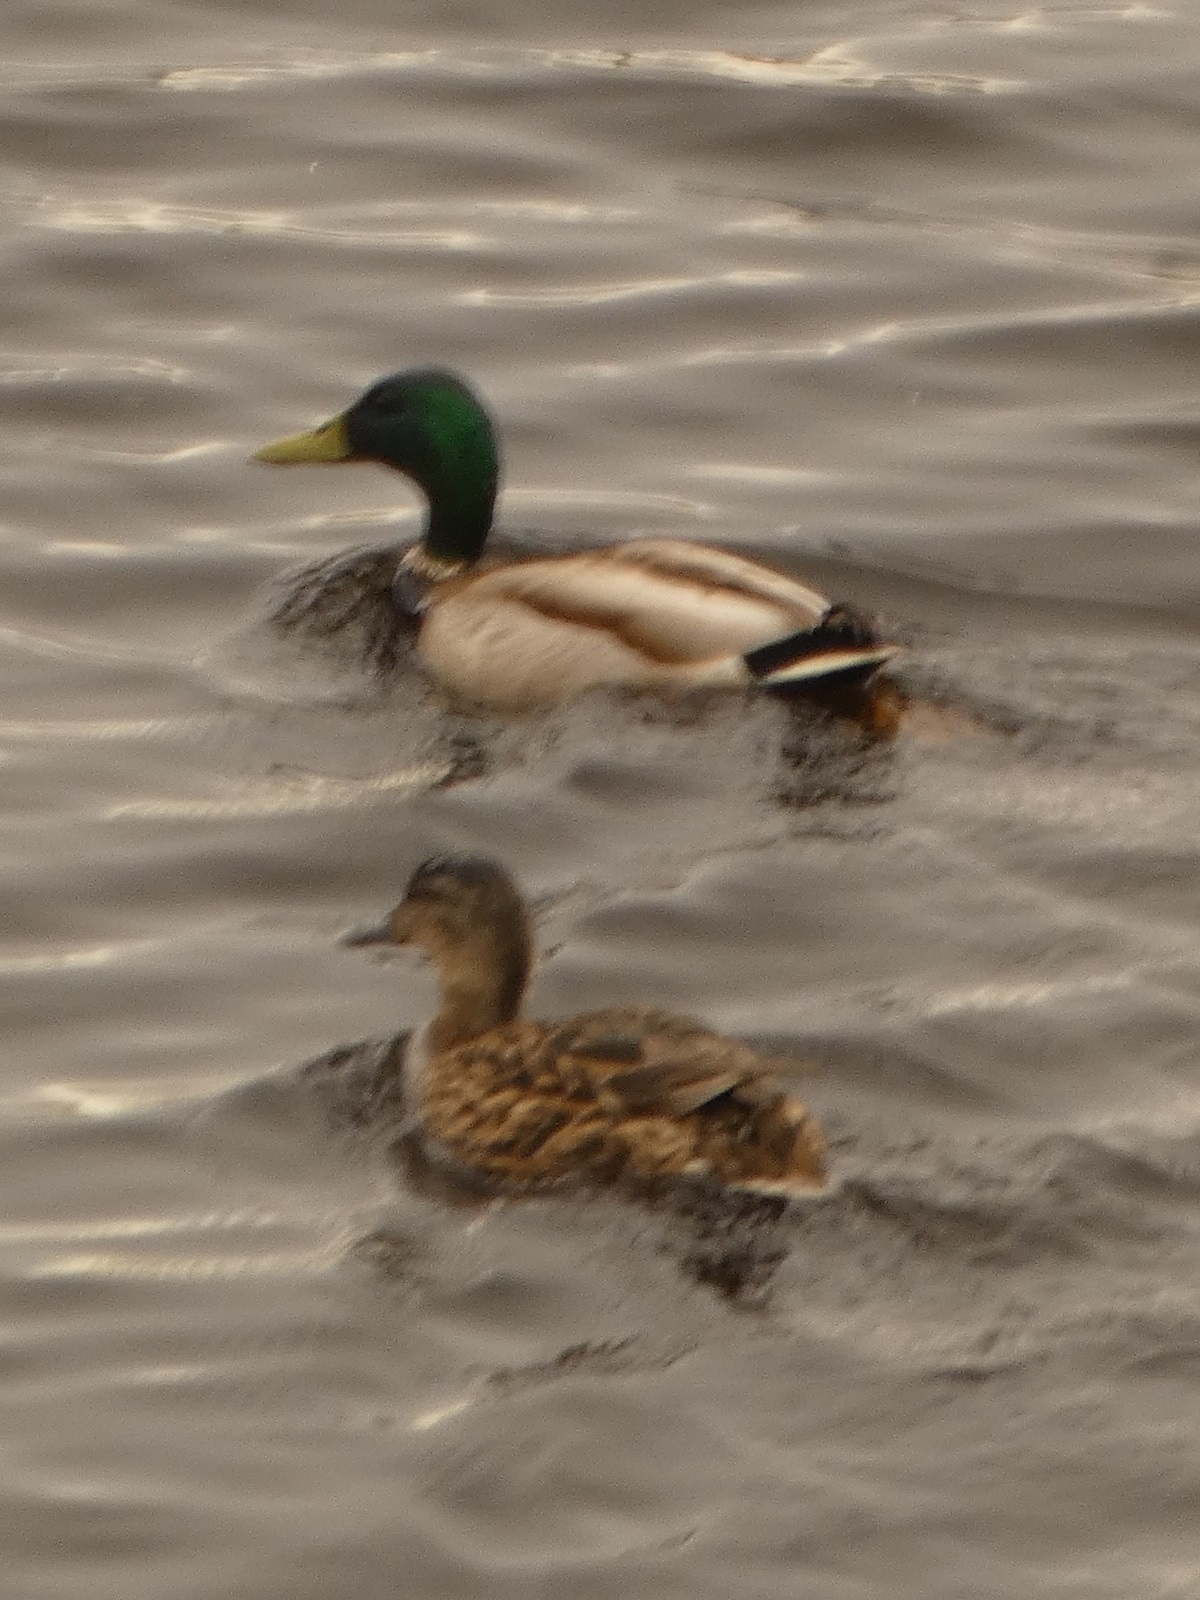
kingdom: Animalia
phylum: Chordata
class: Aves
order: Anseriformes
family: Anatidae
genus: Anas
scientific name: Anas platyrhynchos
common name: Mallard
